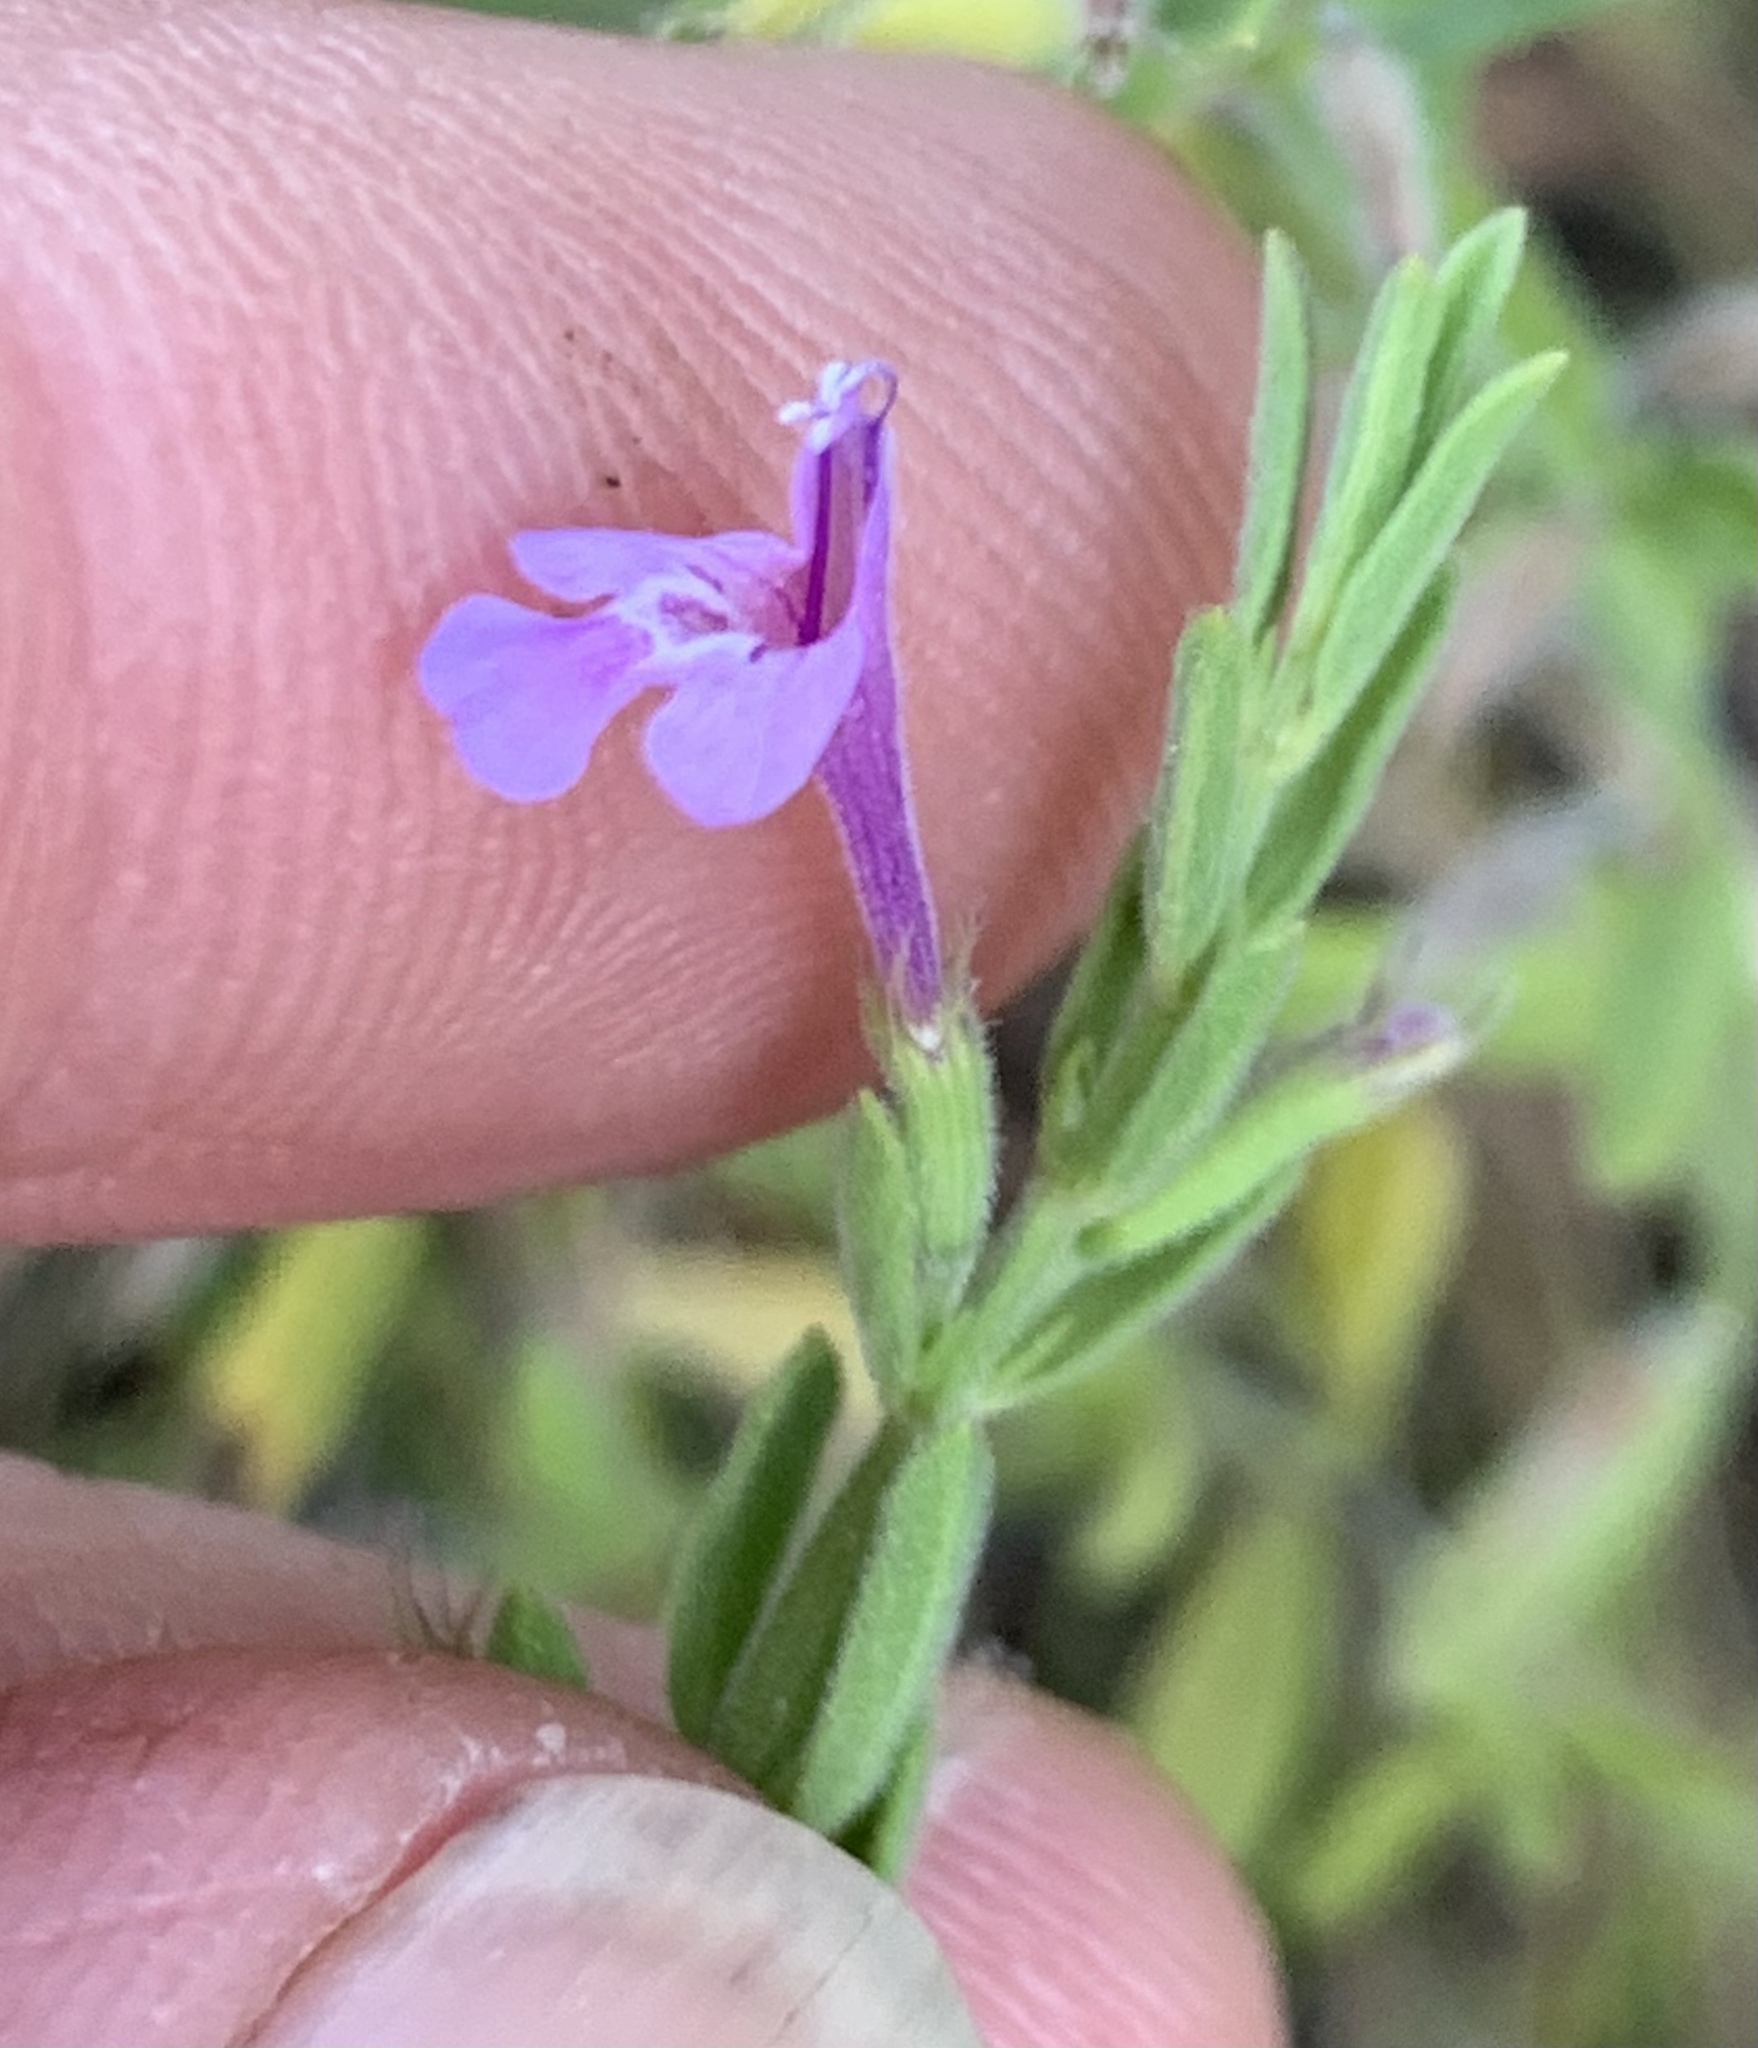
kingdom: Plantae
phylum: Tracheophyta
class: Magnoliopsida
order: Lamiales
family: Lamiaceae
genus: Hedeoma
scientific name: Hedeoma reverchonii
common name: Reverchon's false penny-royal
